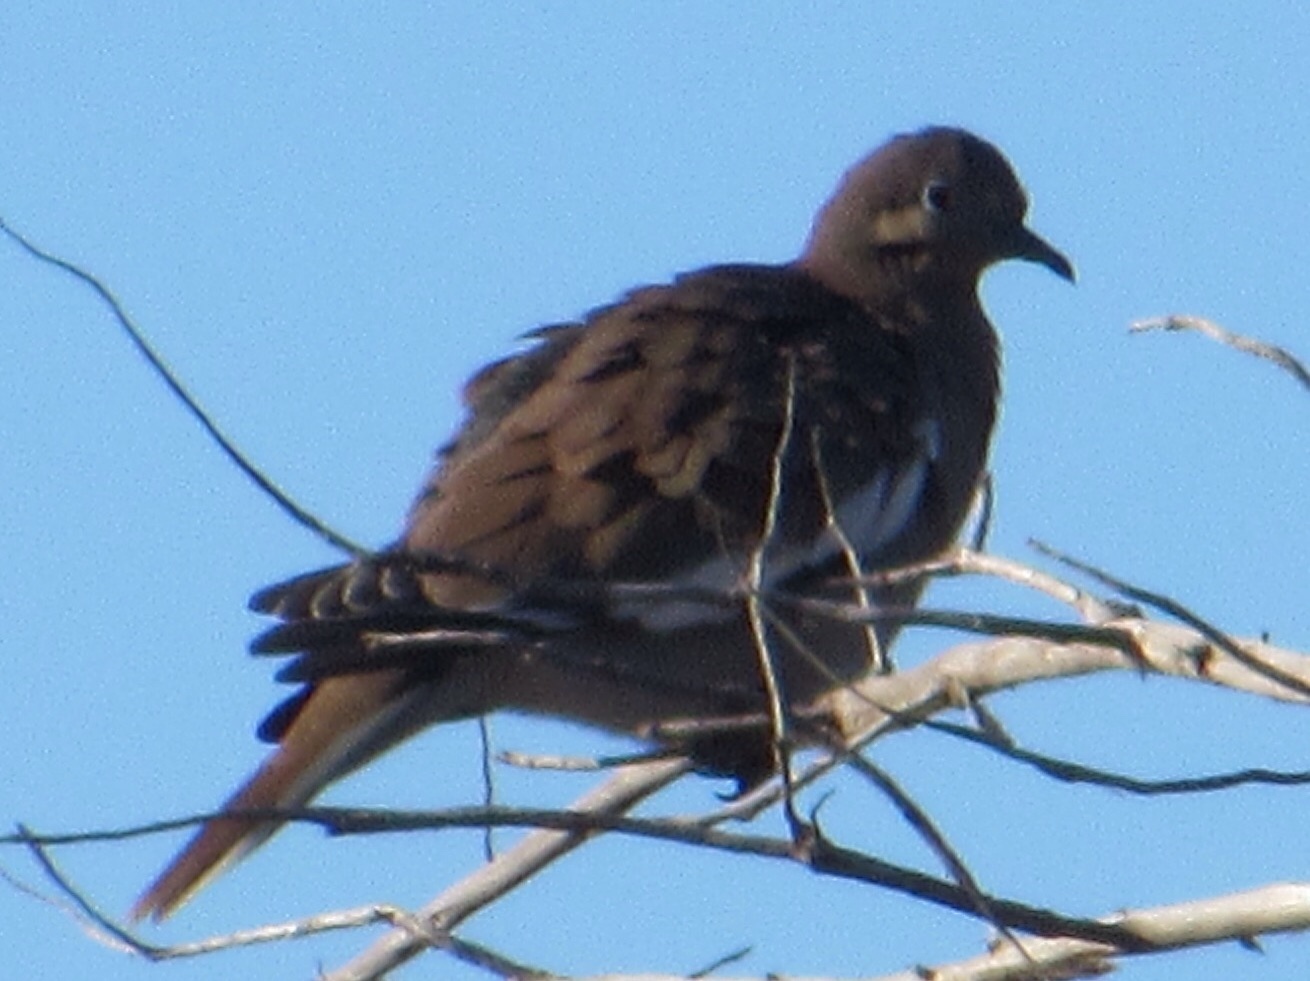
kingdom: Animalia
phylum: Chordata
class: Aves
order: Columbiformes
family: Columbidae
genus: Zenaida
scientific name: Zenaida asiatica
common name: White-winged dove
